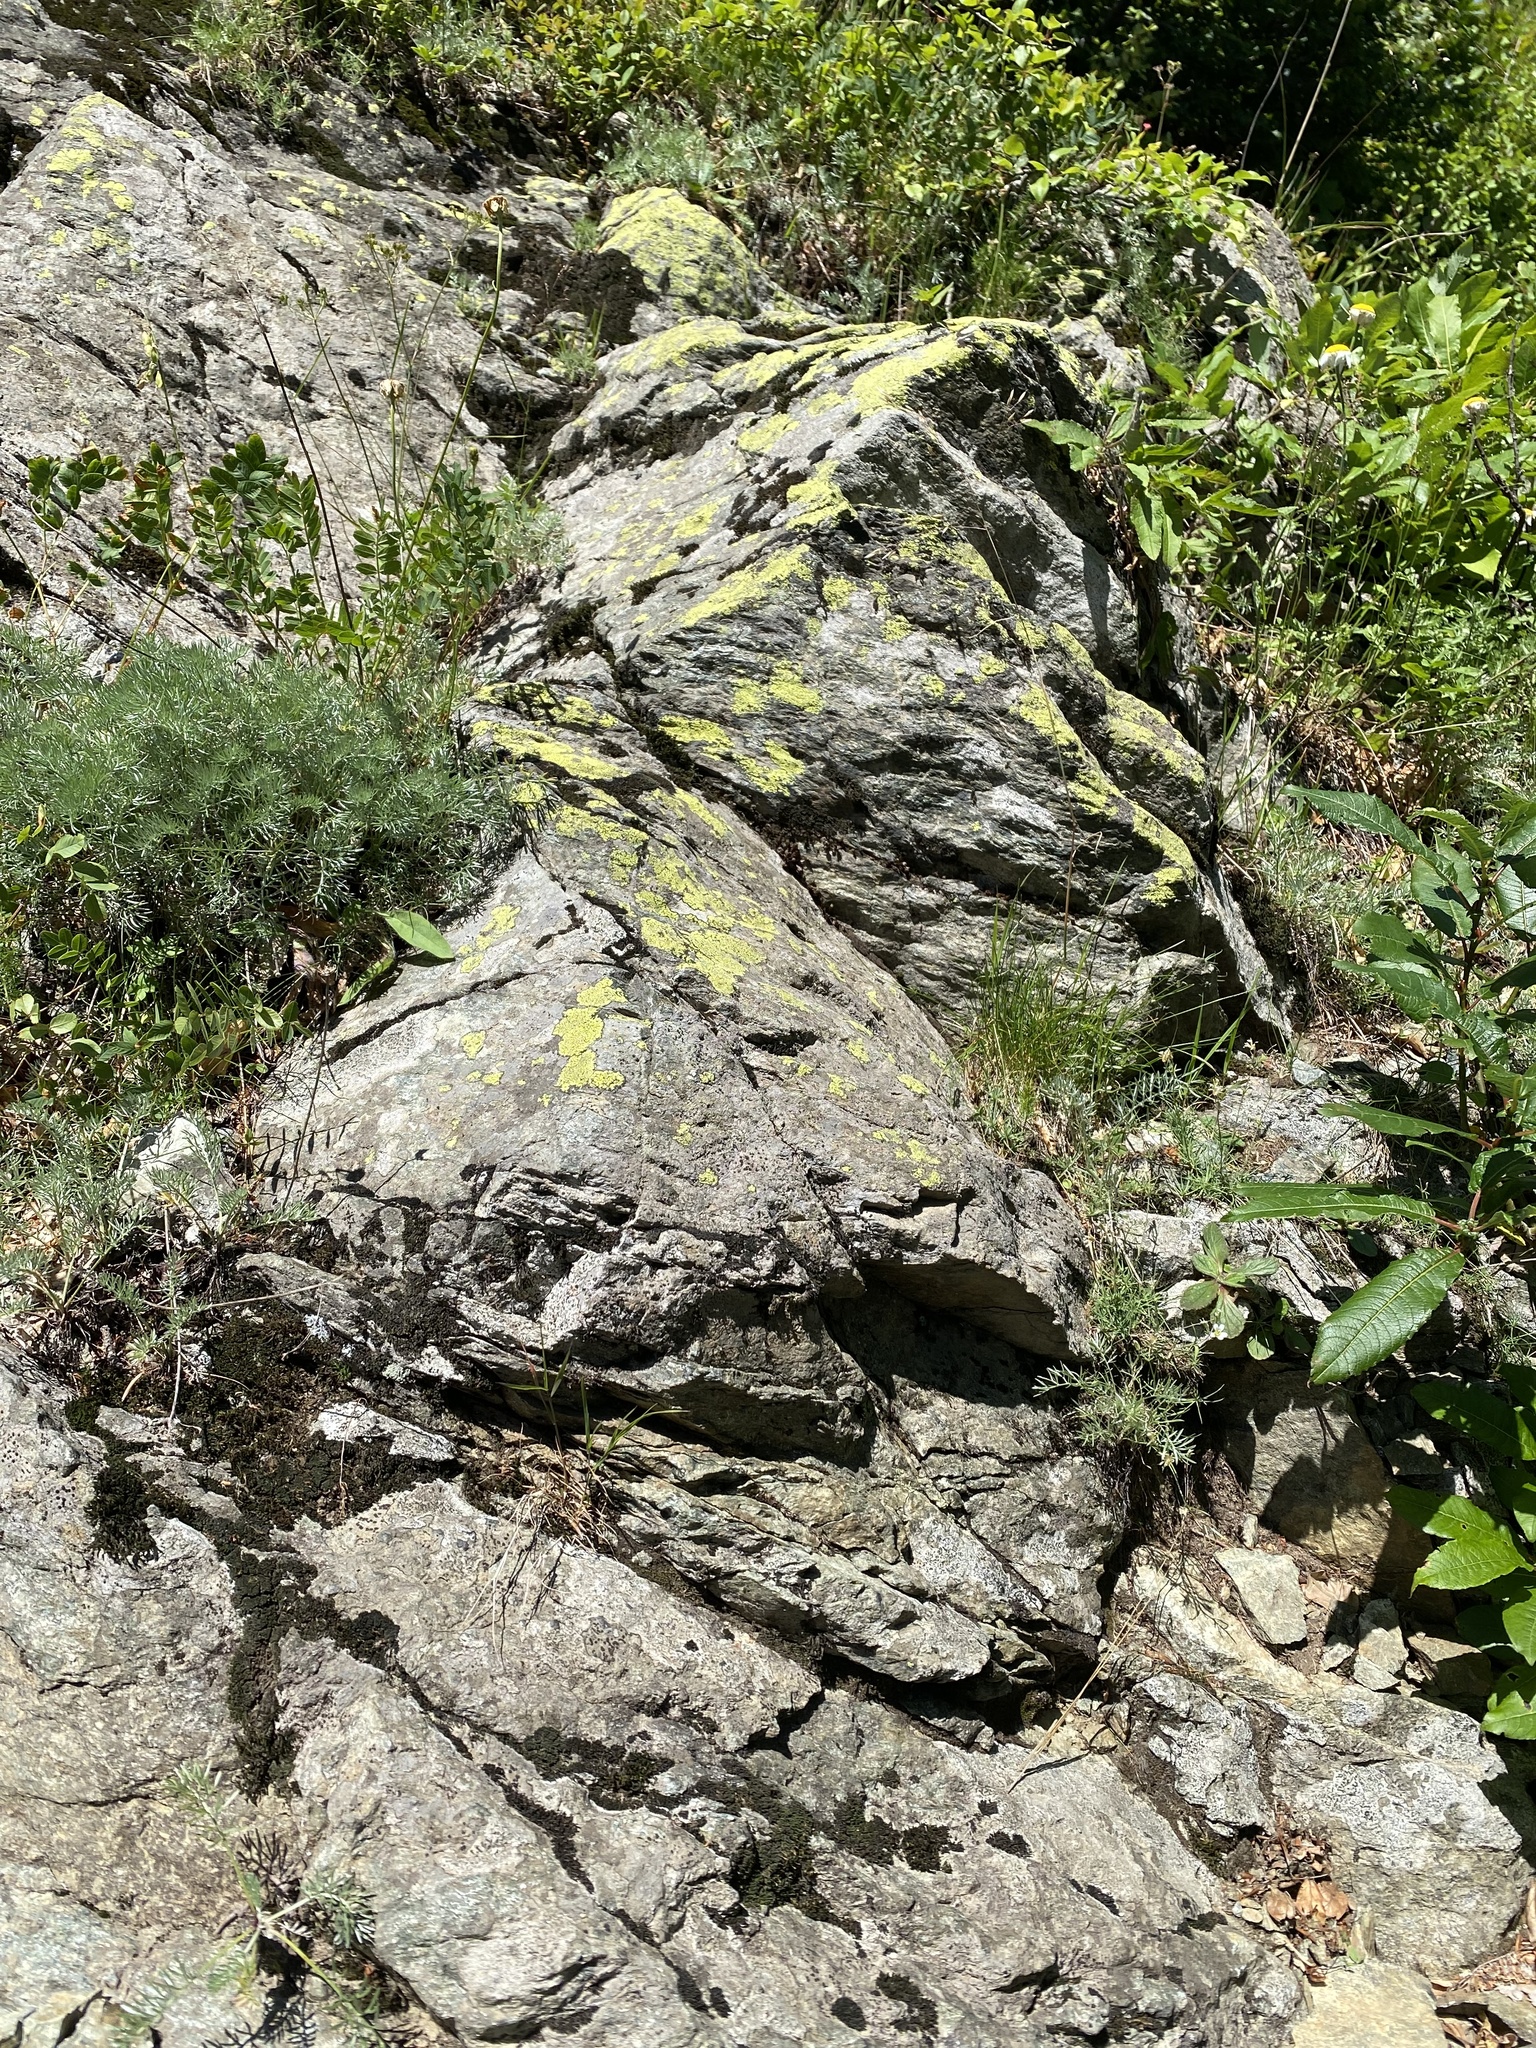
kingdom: Fungi
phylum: Ascomycota
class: Lecanoromycetes
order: Rhizocarpales
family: Rhizocarpaceae
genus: Rhizocarpon
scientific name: Rhizocarpon
